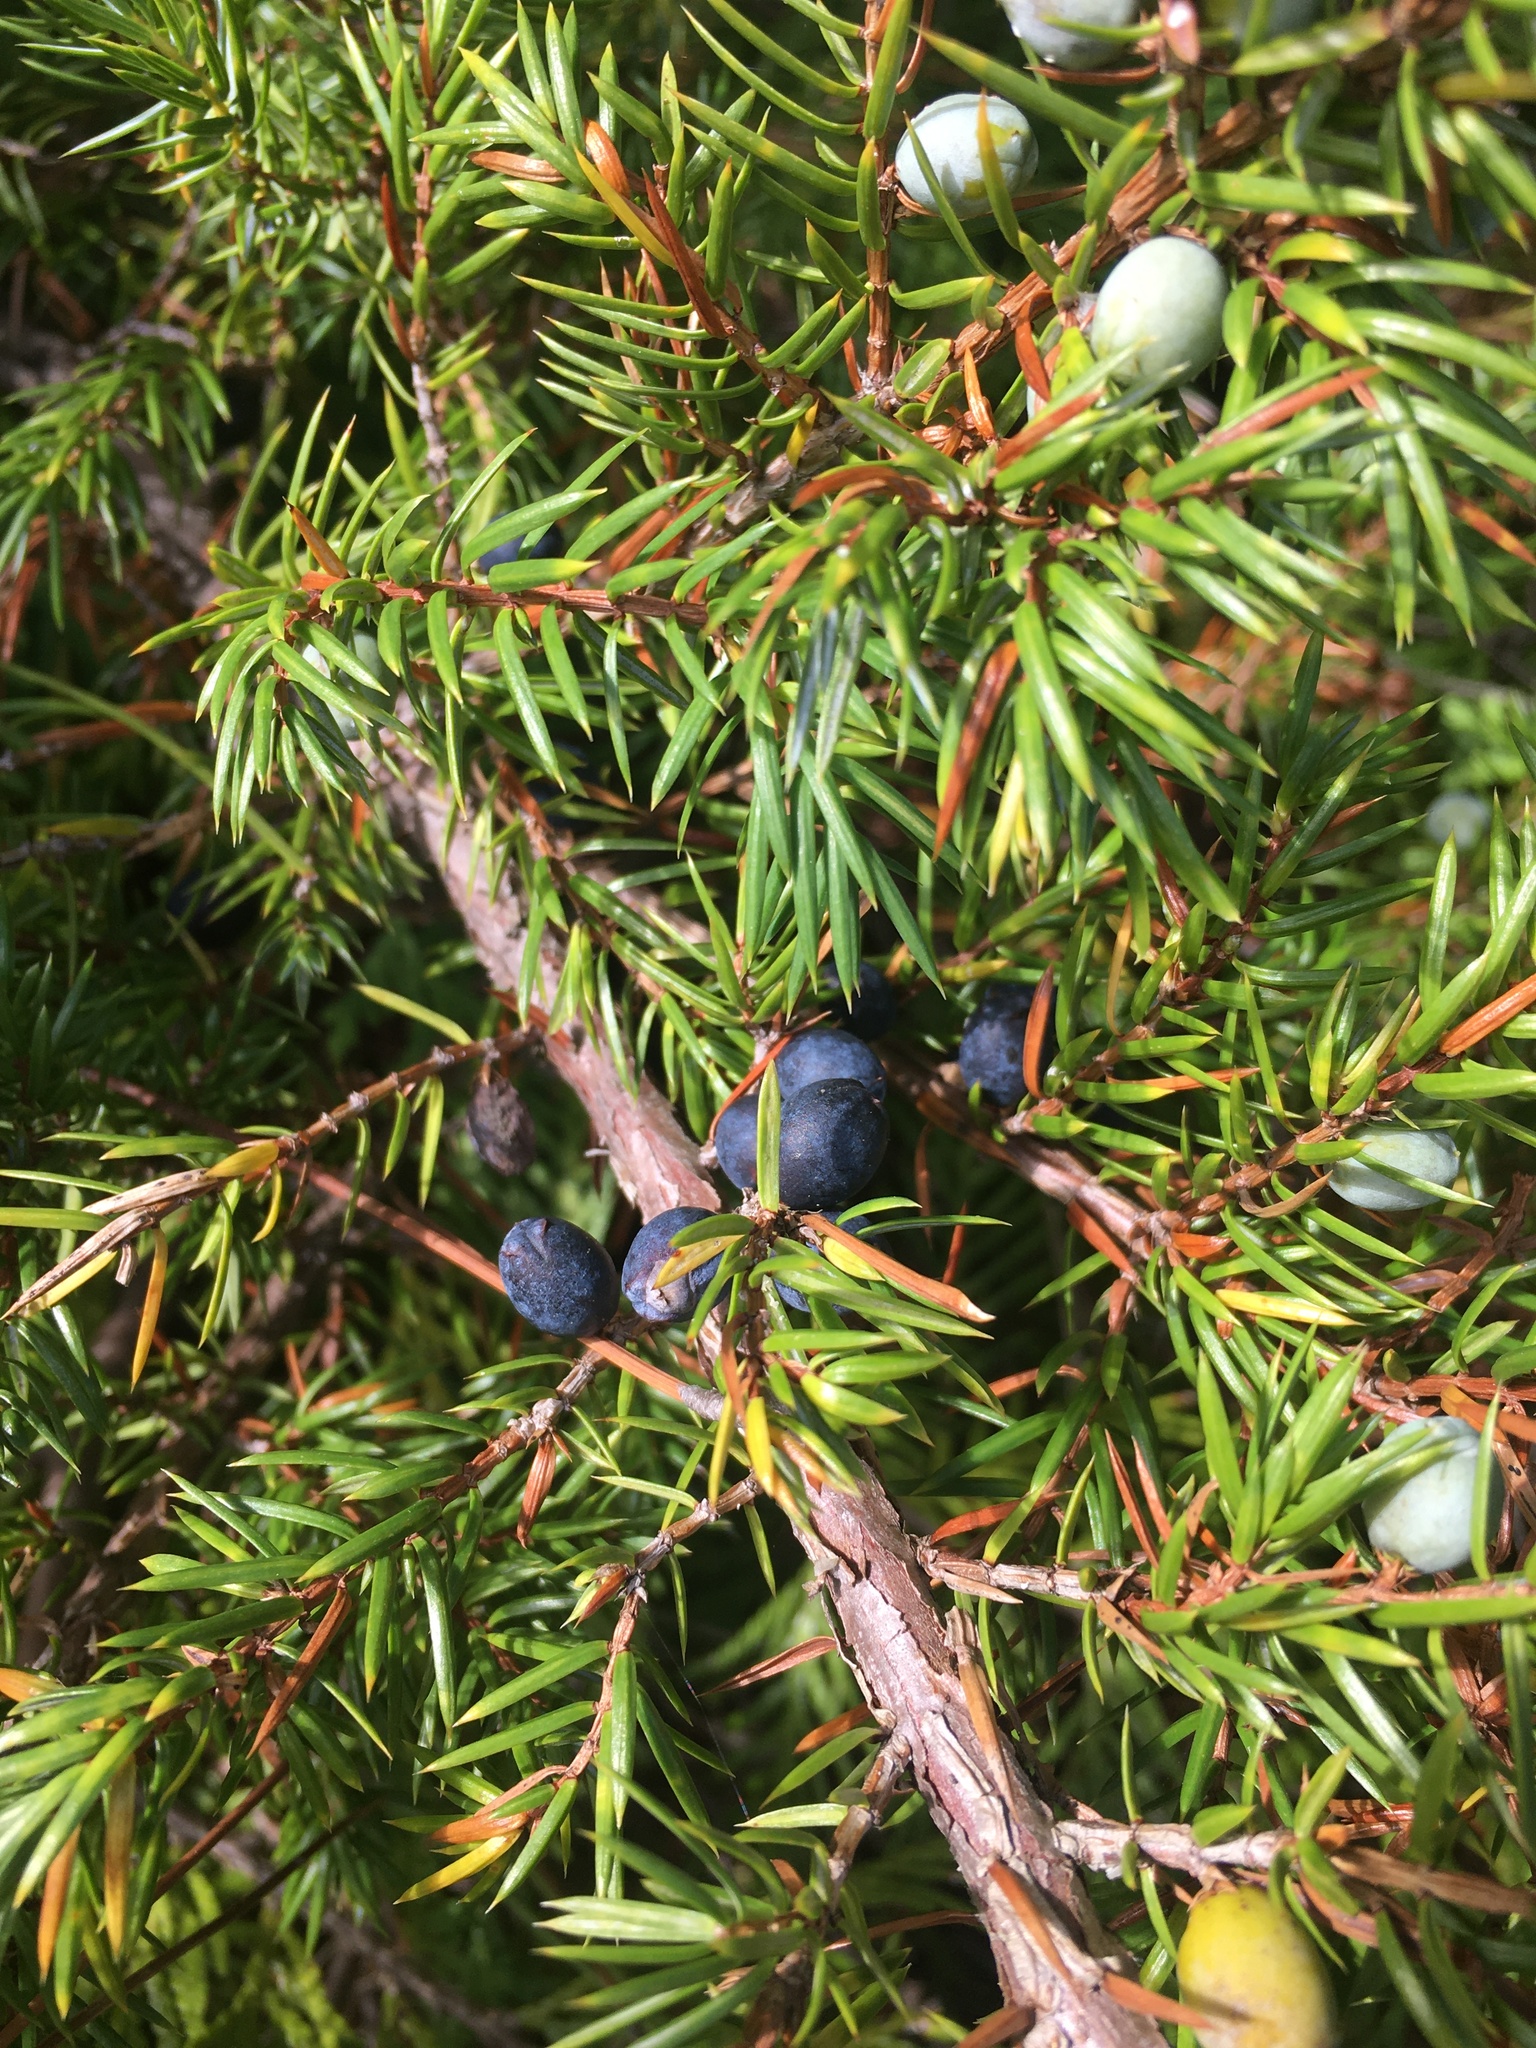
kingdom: Plantae
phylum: Tracheophyta
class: Pinopsida
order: Pinales
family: Cupressaceae
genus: Juniperus
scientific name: Juniperus communis
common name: Common juniper
